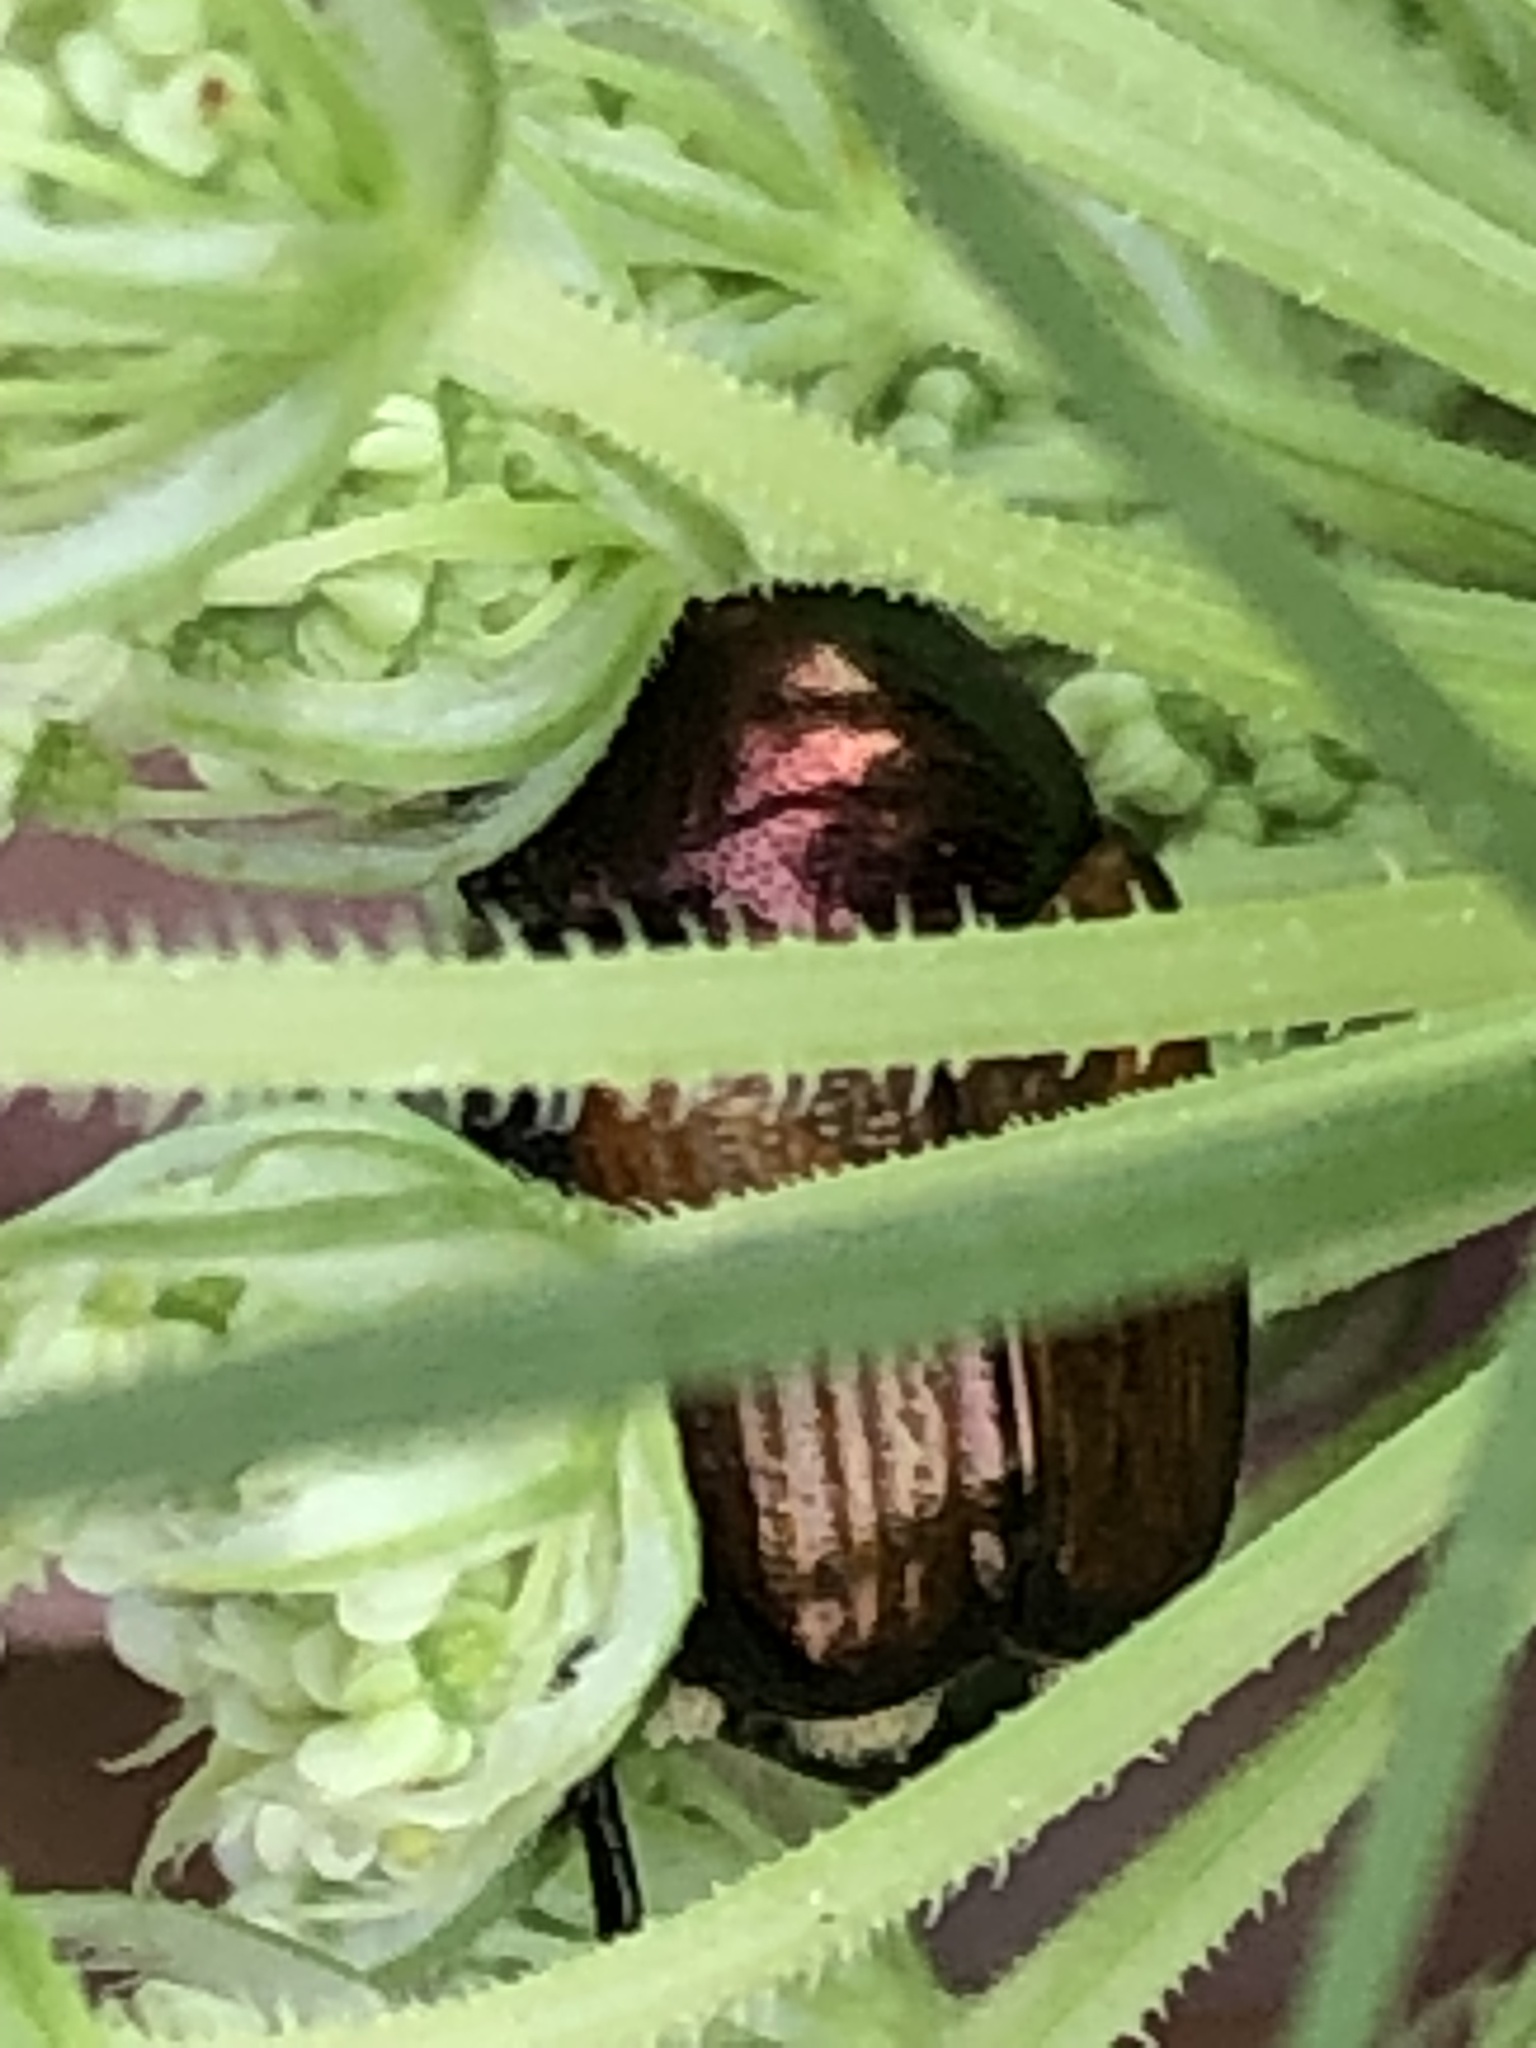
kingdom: Animalia
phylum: Arthropoda
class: Insecta
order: Coleoptera
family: Scarabaeidae
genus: Popillia
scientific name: Popillia japonica
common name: Japanese beetle
